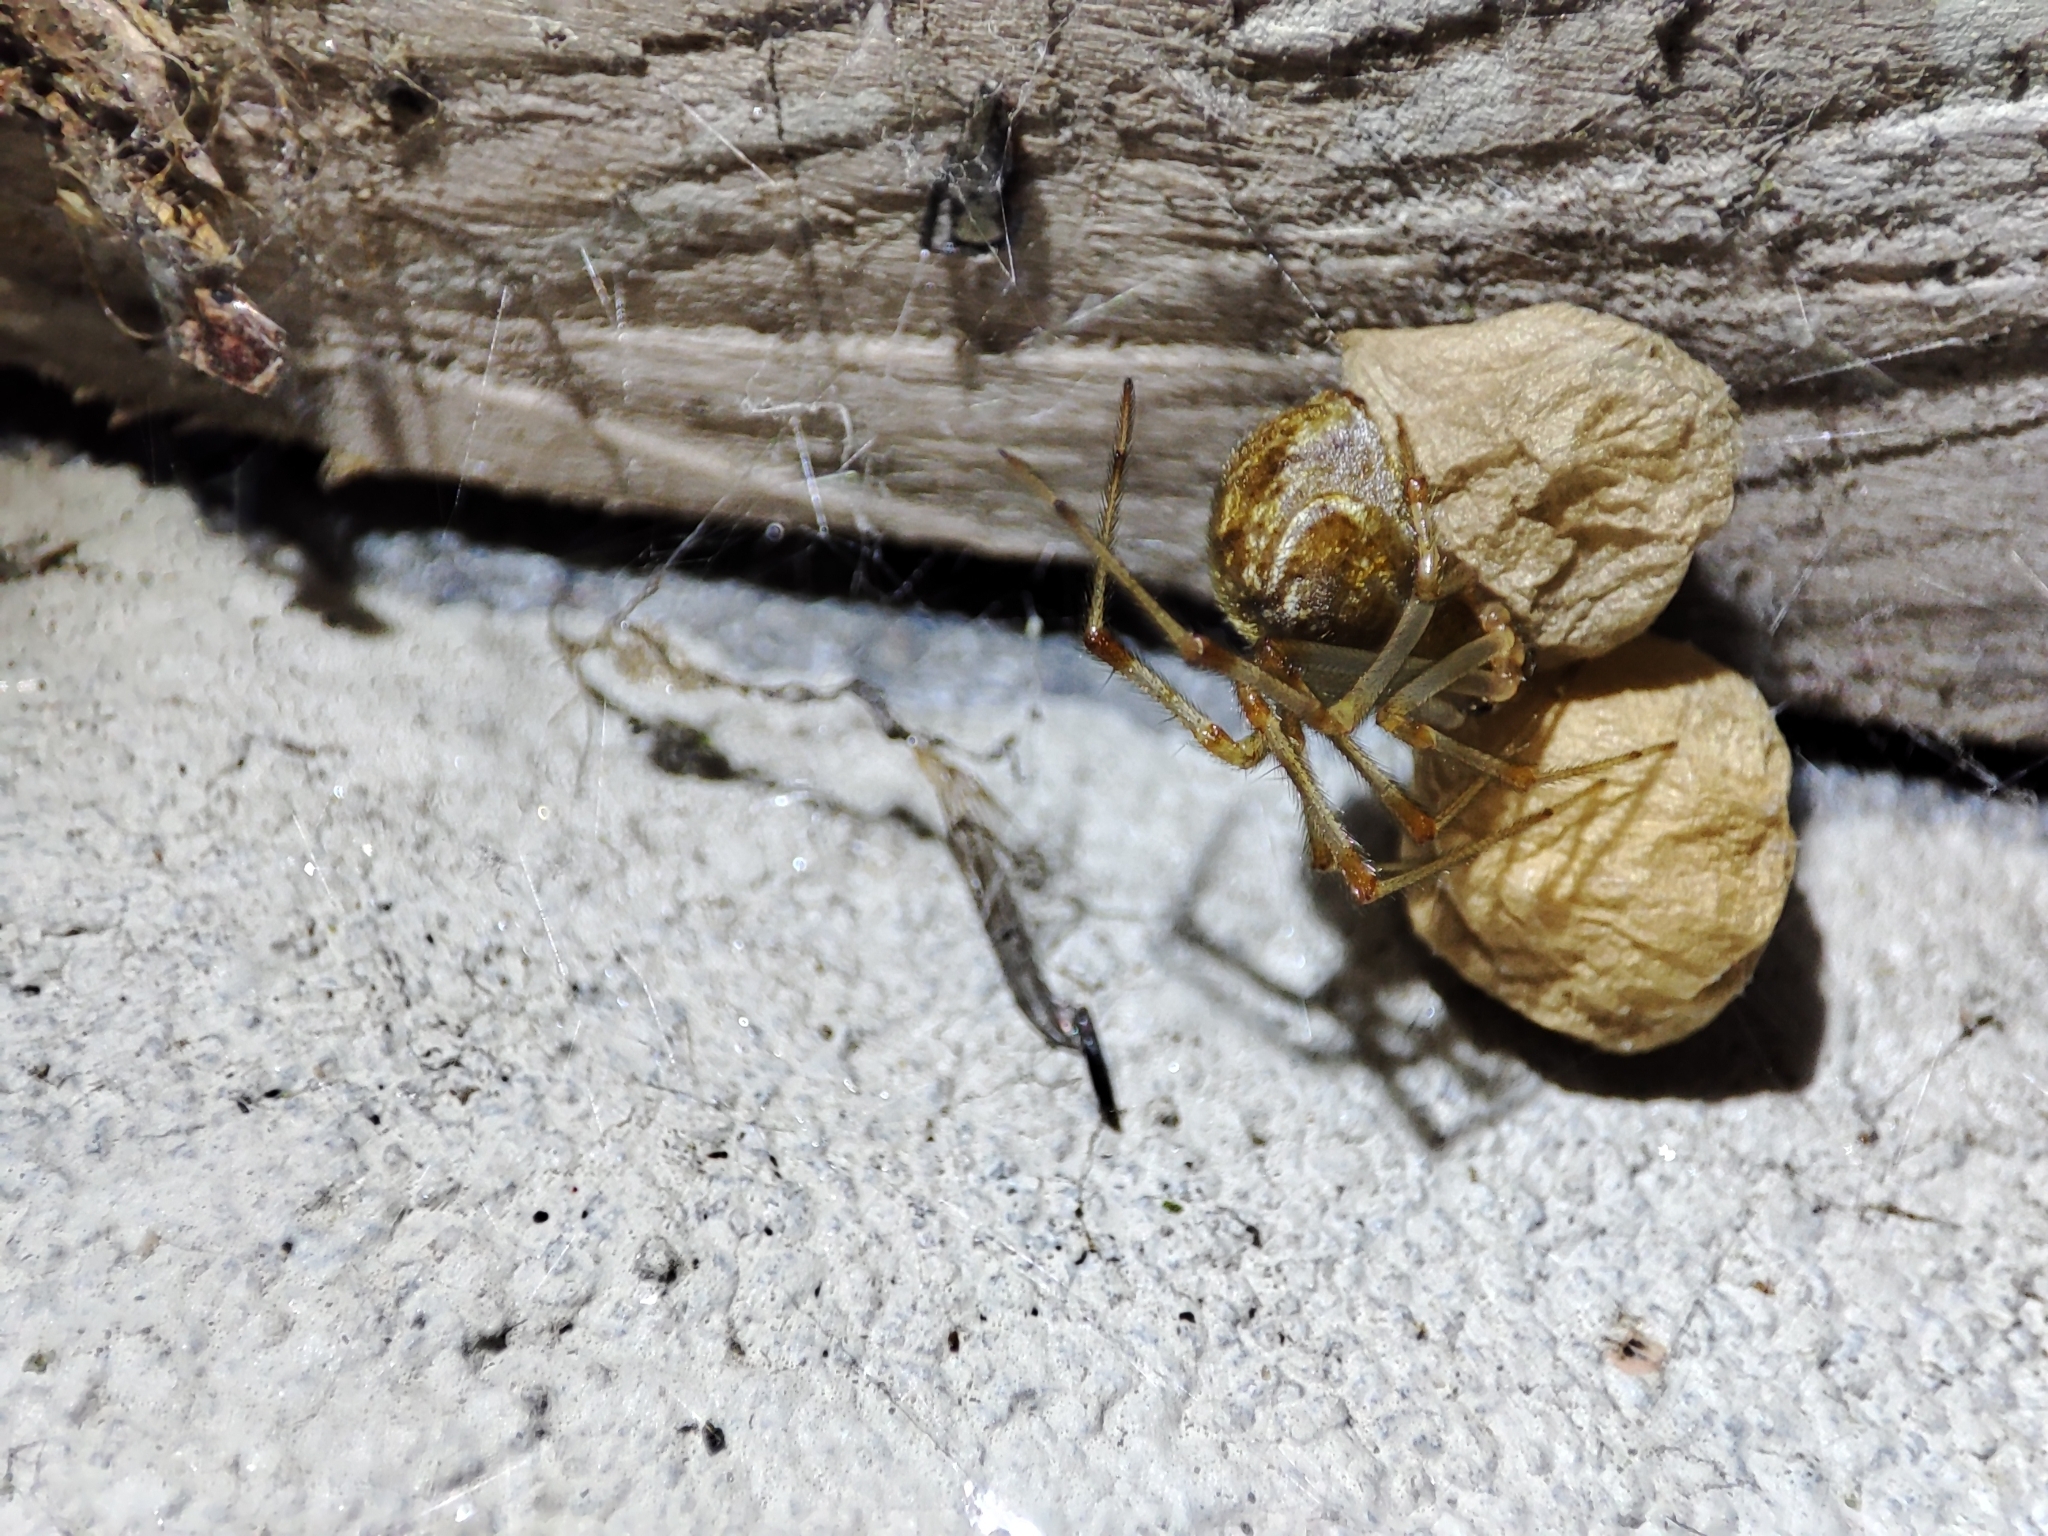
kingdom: Animalia
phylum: Arthropoda
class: Arachnida
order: Araneae
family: Theridiidae
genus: Parasteatoda
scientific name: Parasteatoda tepidariorum
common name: Common house spider
